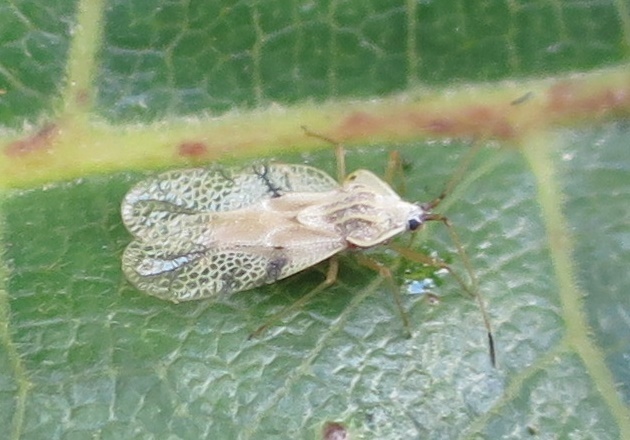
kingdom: Animalia
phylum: Arthropoda
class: Insecta
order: Hemiptera
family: Tingidae
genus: Gargaphia
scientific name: Gargaphia decoris
